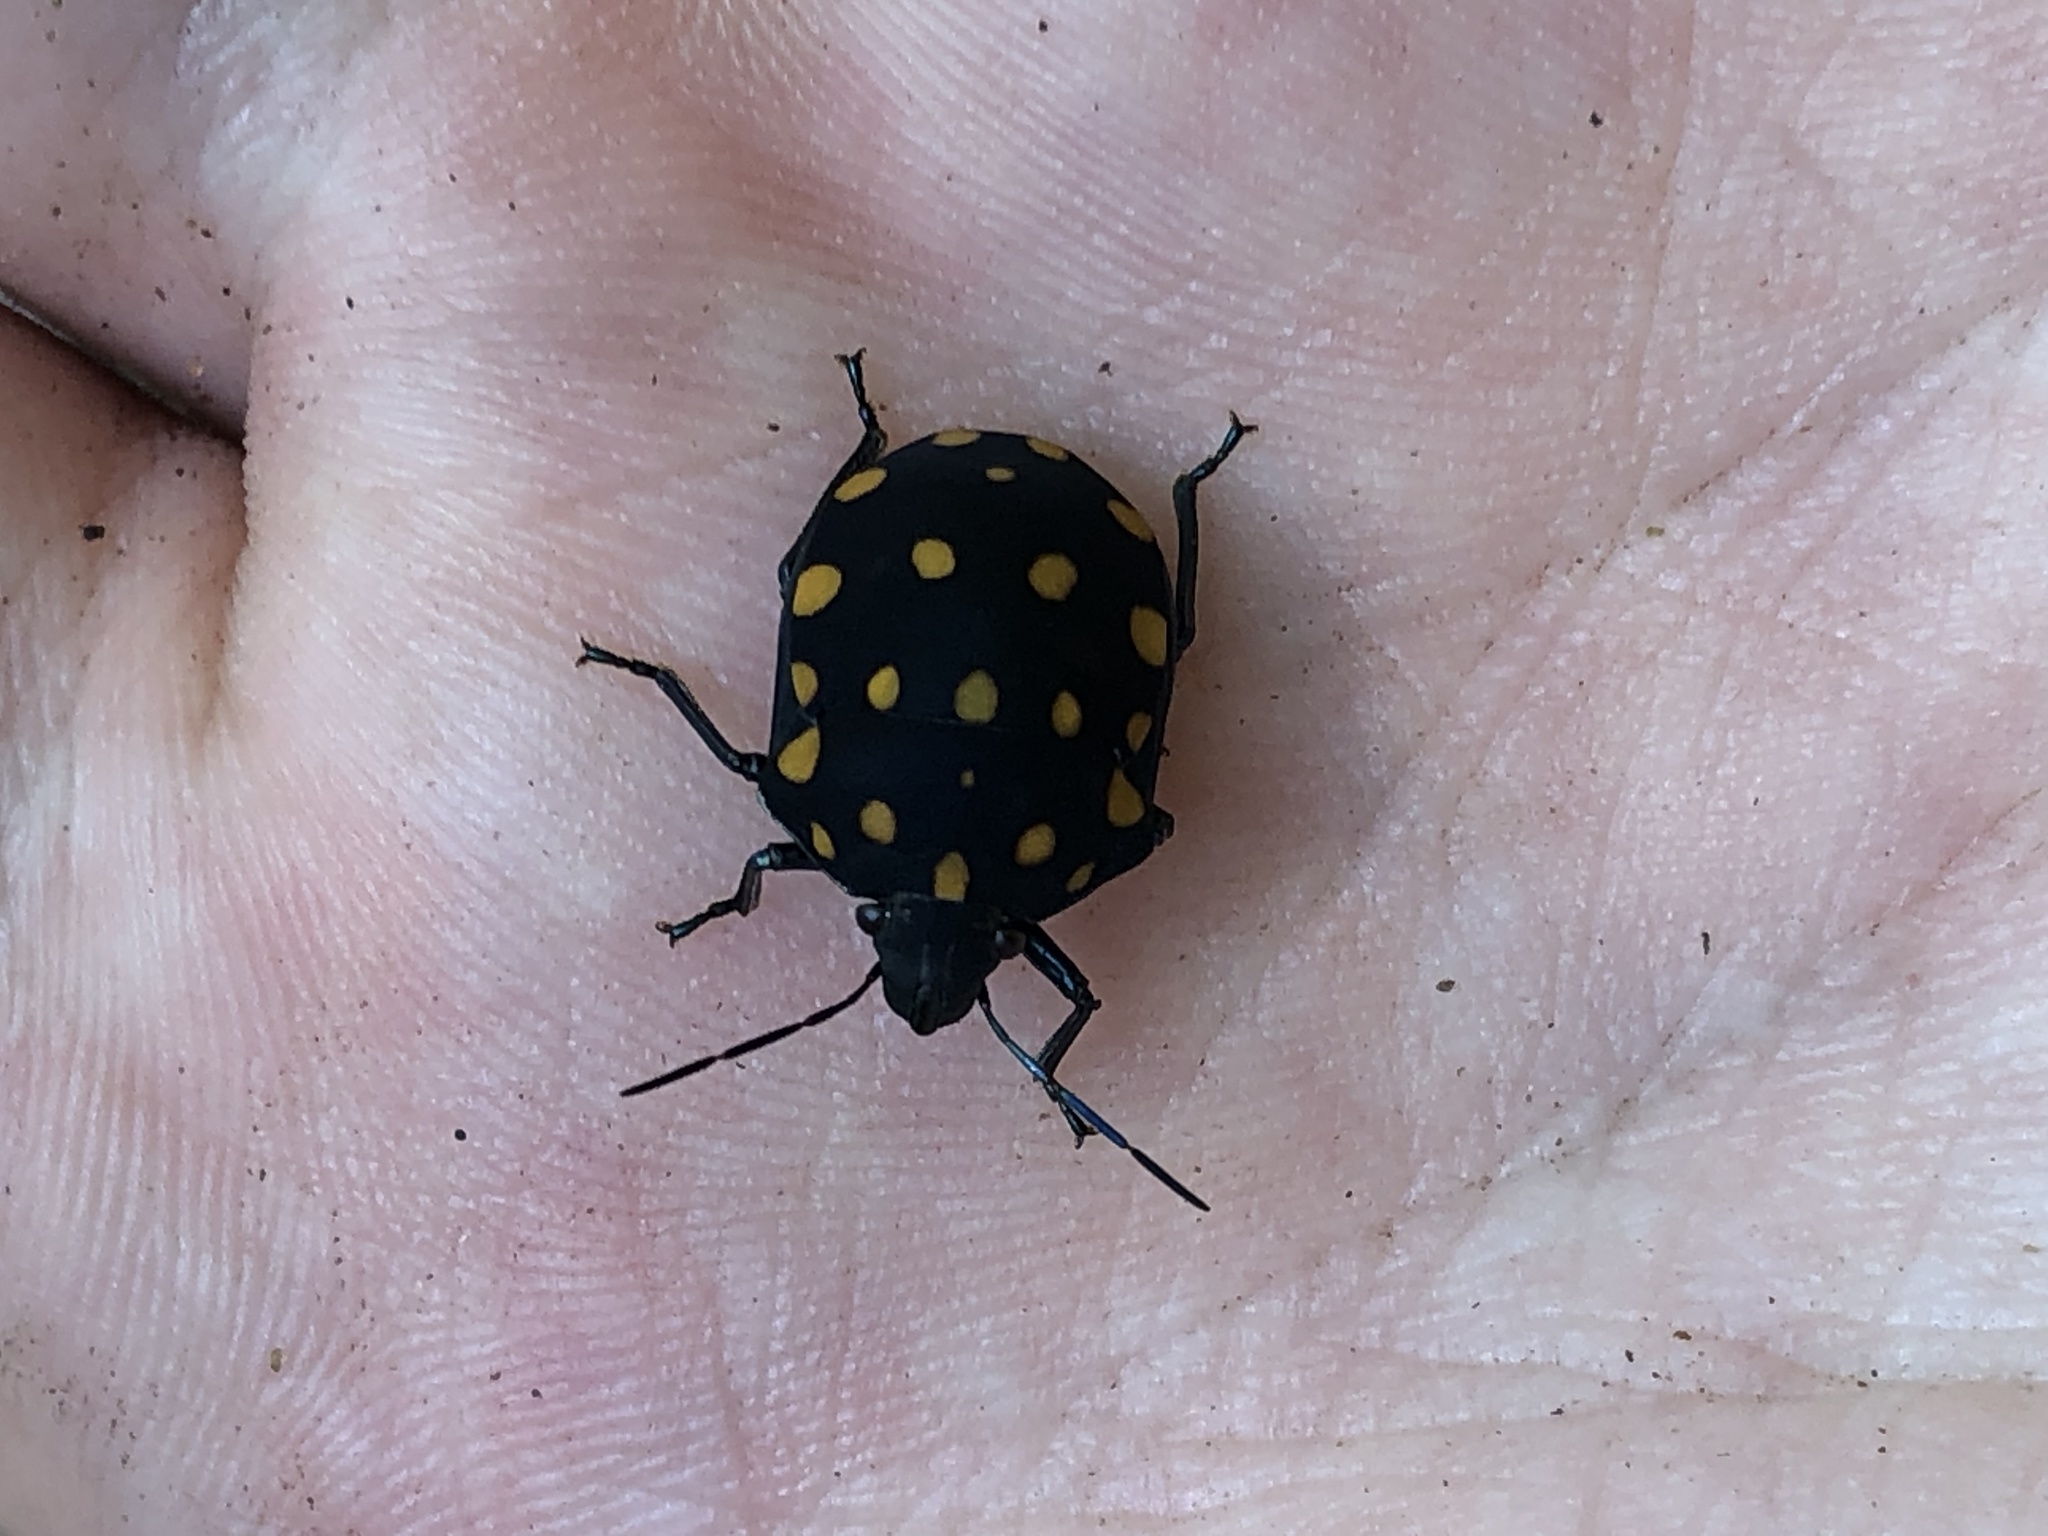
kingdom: Animalia
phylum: Arthropoda
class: Insecta
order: Hemiptera
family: Scutelleridae
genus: Pachycoris
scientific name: Pachycoris torridus
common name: Torrid jewel bug
